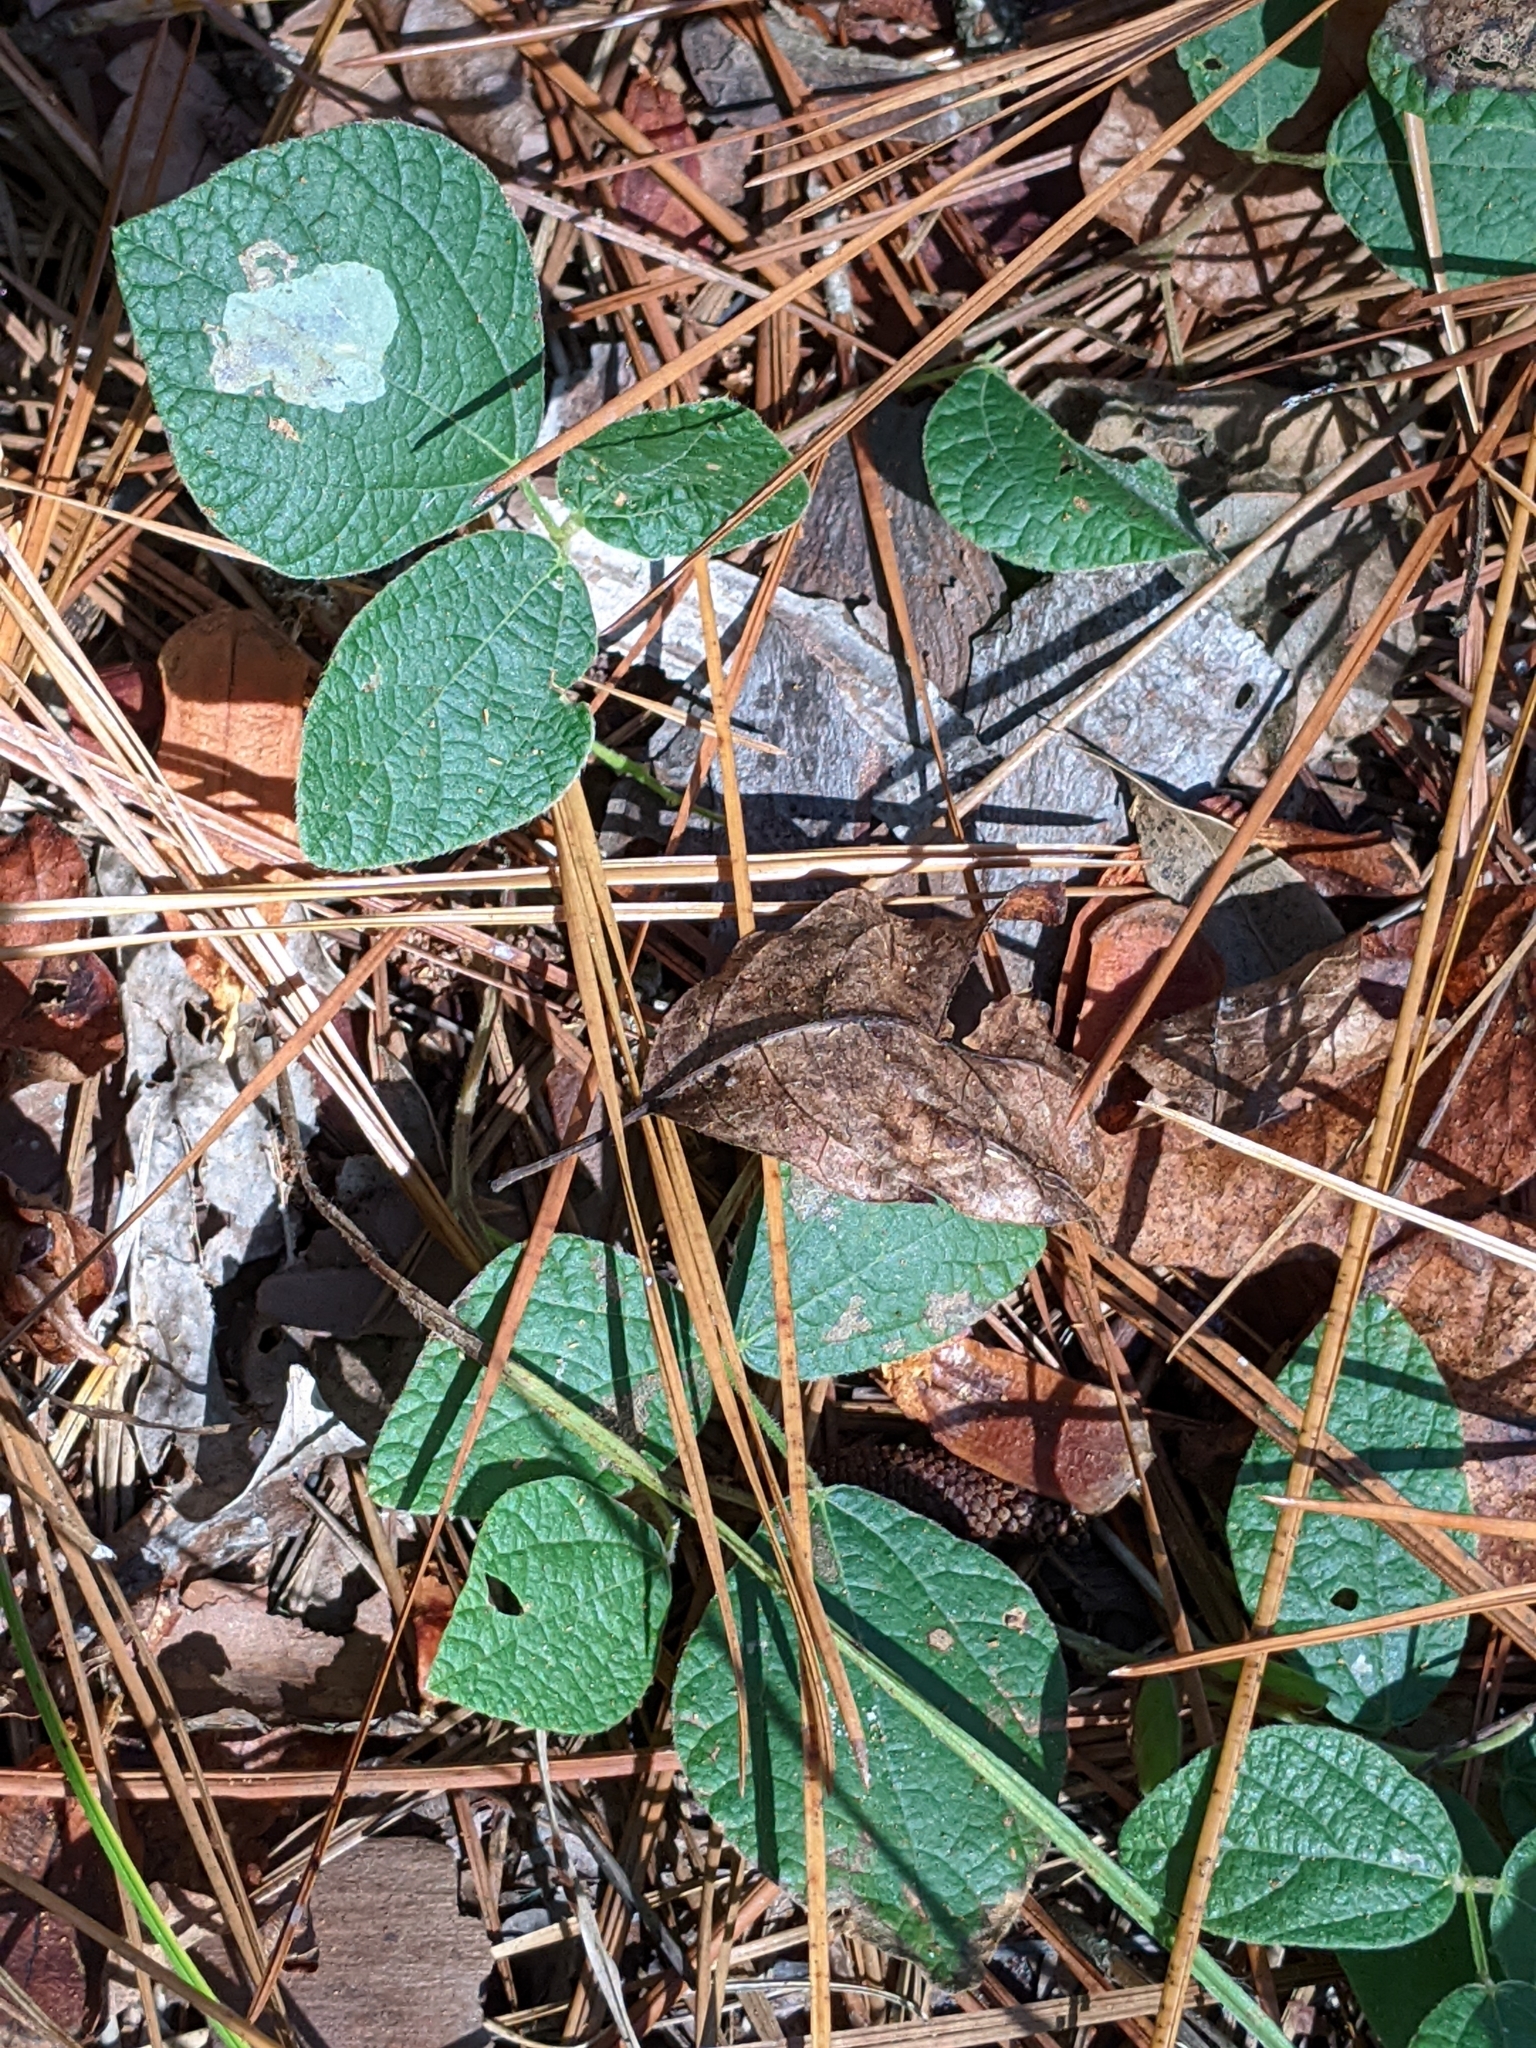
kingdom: Plantae
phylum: Tracheophyta
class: Magnoliopsida
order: Fabales
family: Fabaceae
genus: Rhynchosia
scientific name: Rhynchosia latifolia
